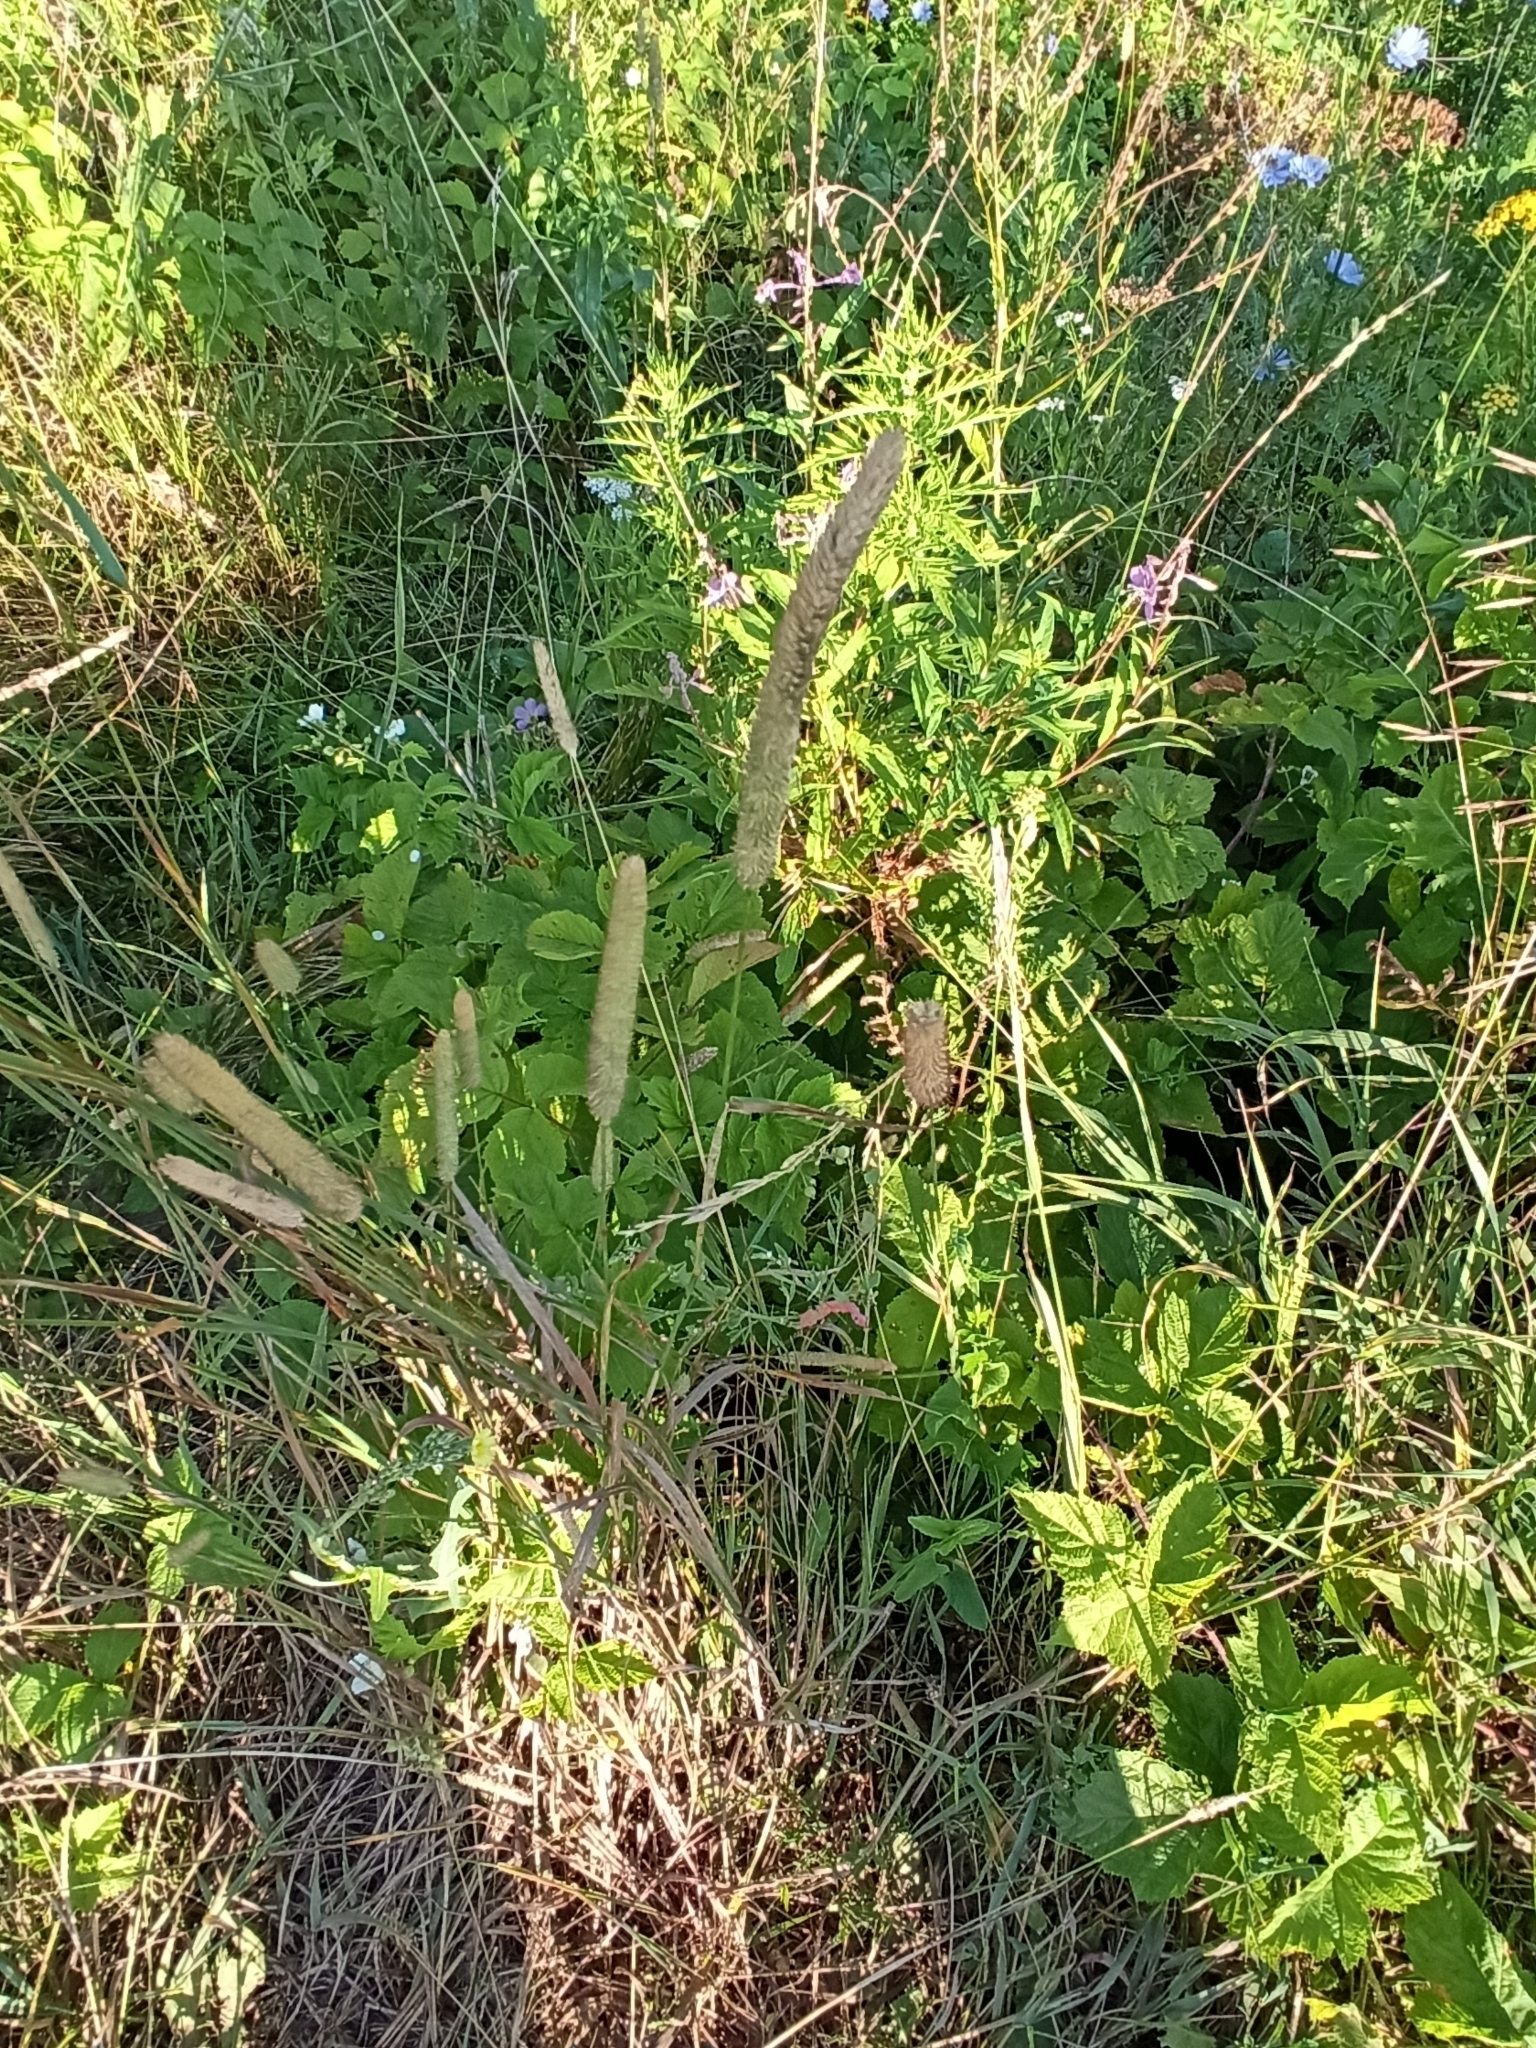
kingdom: Plantae
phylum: Tracheophyta
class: Liliopsida
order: Poales
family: Poaceae
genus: Phleum
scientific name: Phleum pratense
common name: Timothy grass
